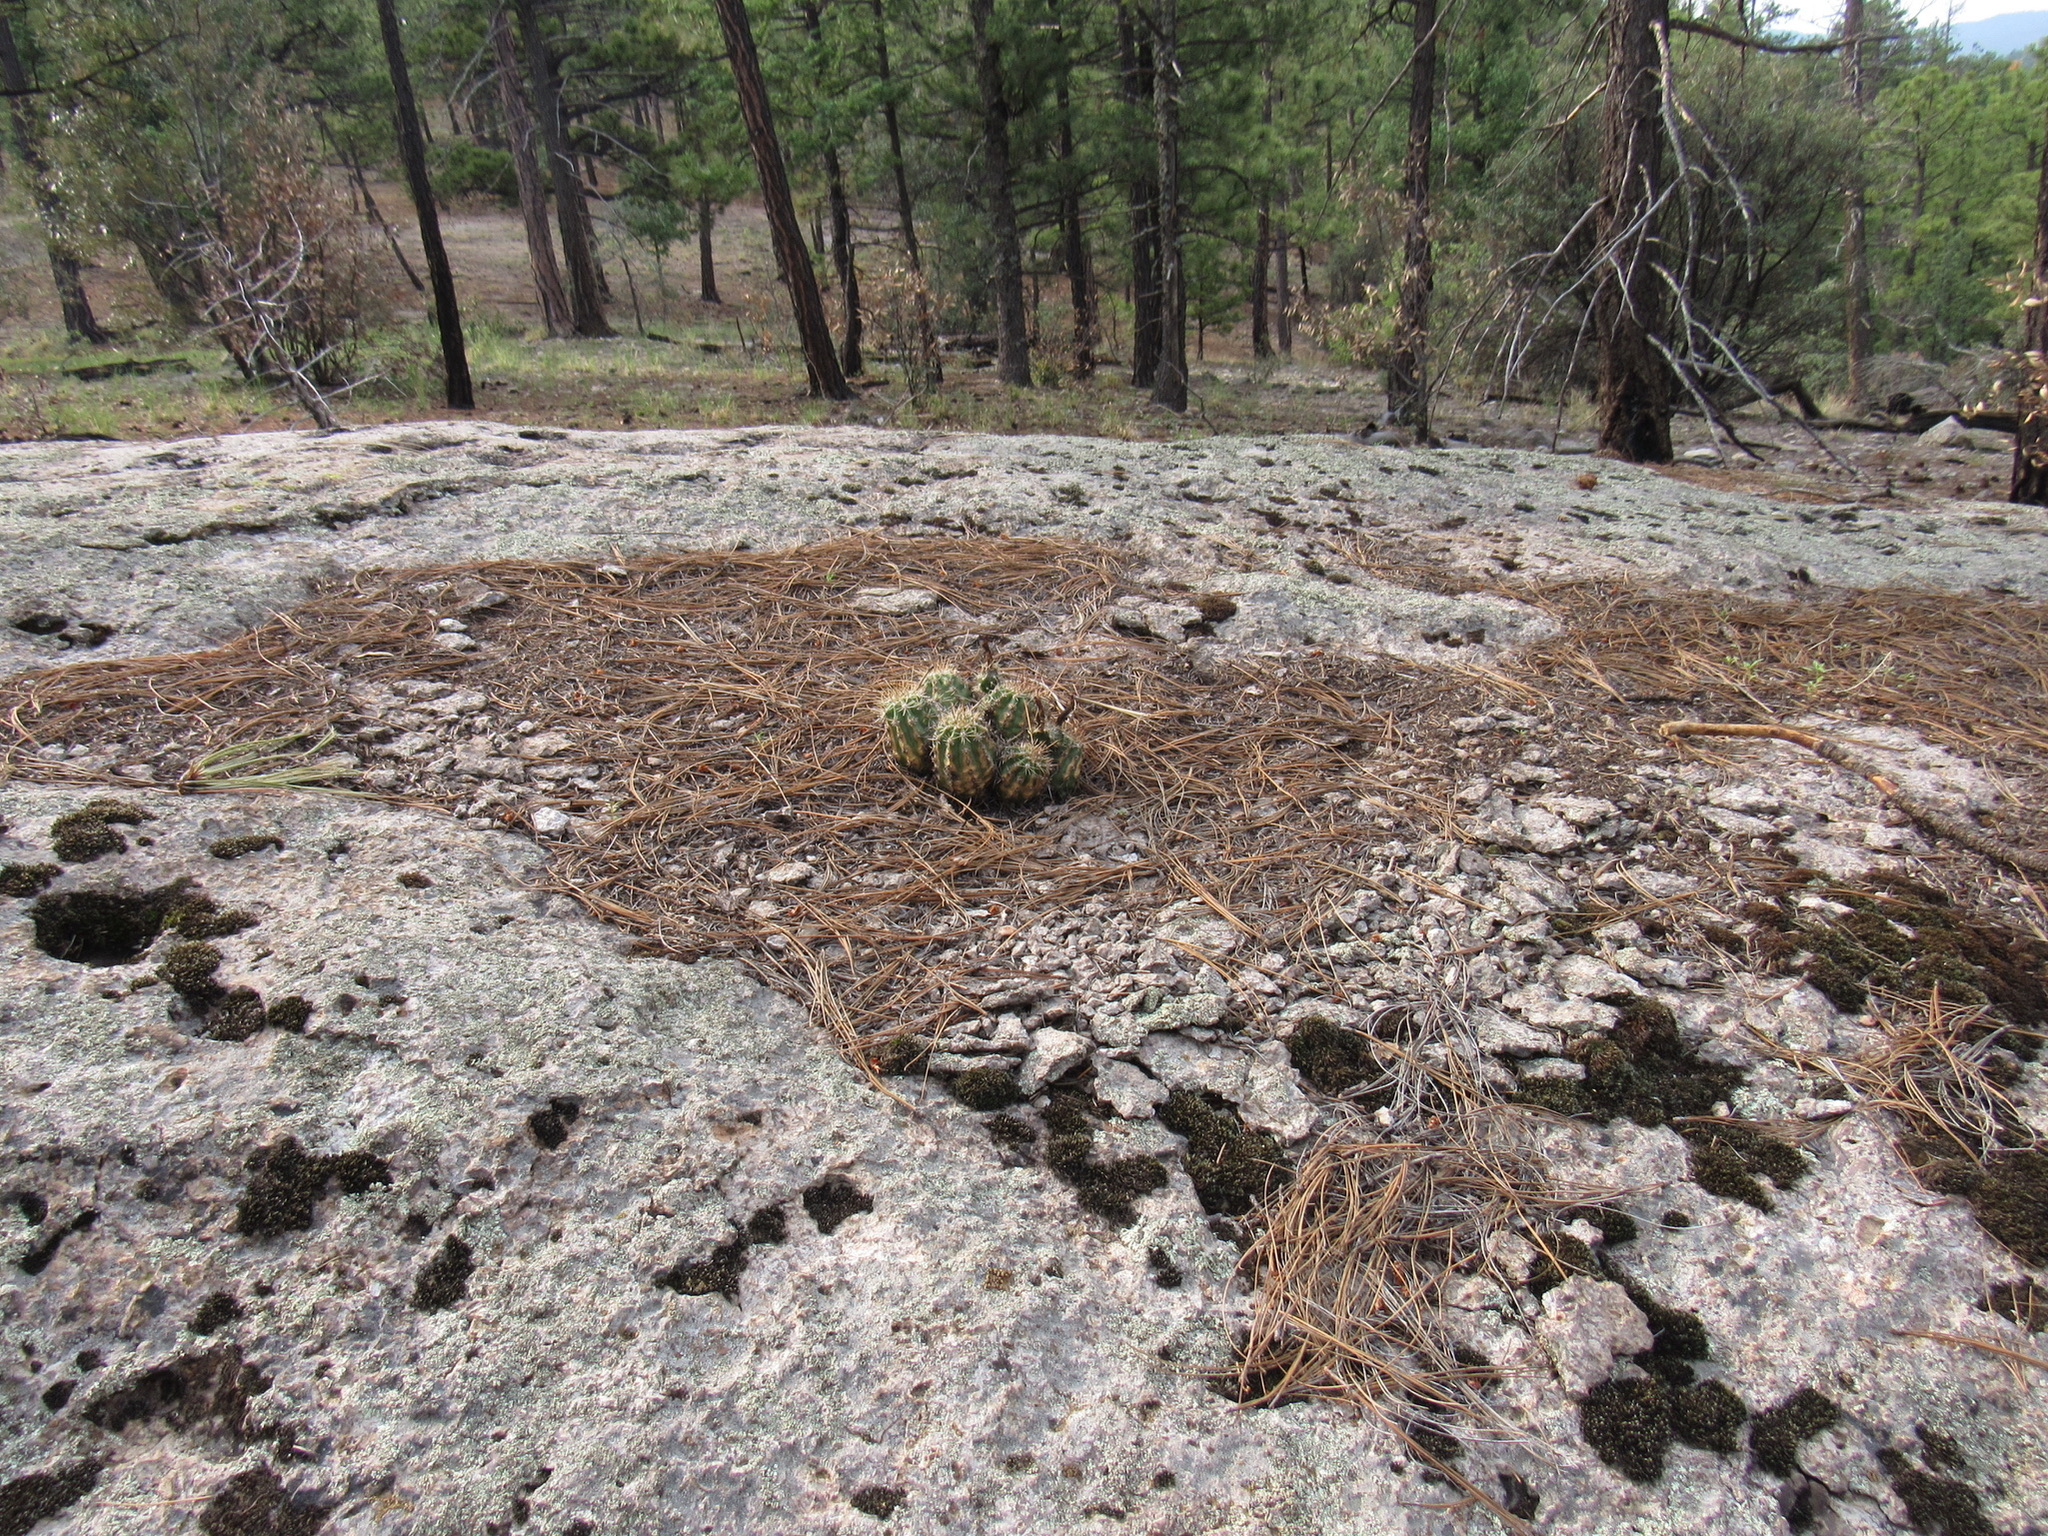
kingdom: Plantae
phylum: Tracheophyta
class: Magnoliopsida
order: Caryophyllales
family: Cactaceae
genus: Echinocereus
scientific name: Echinocereus coccineus
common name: Scarlet hedgehog cactus
